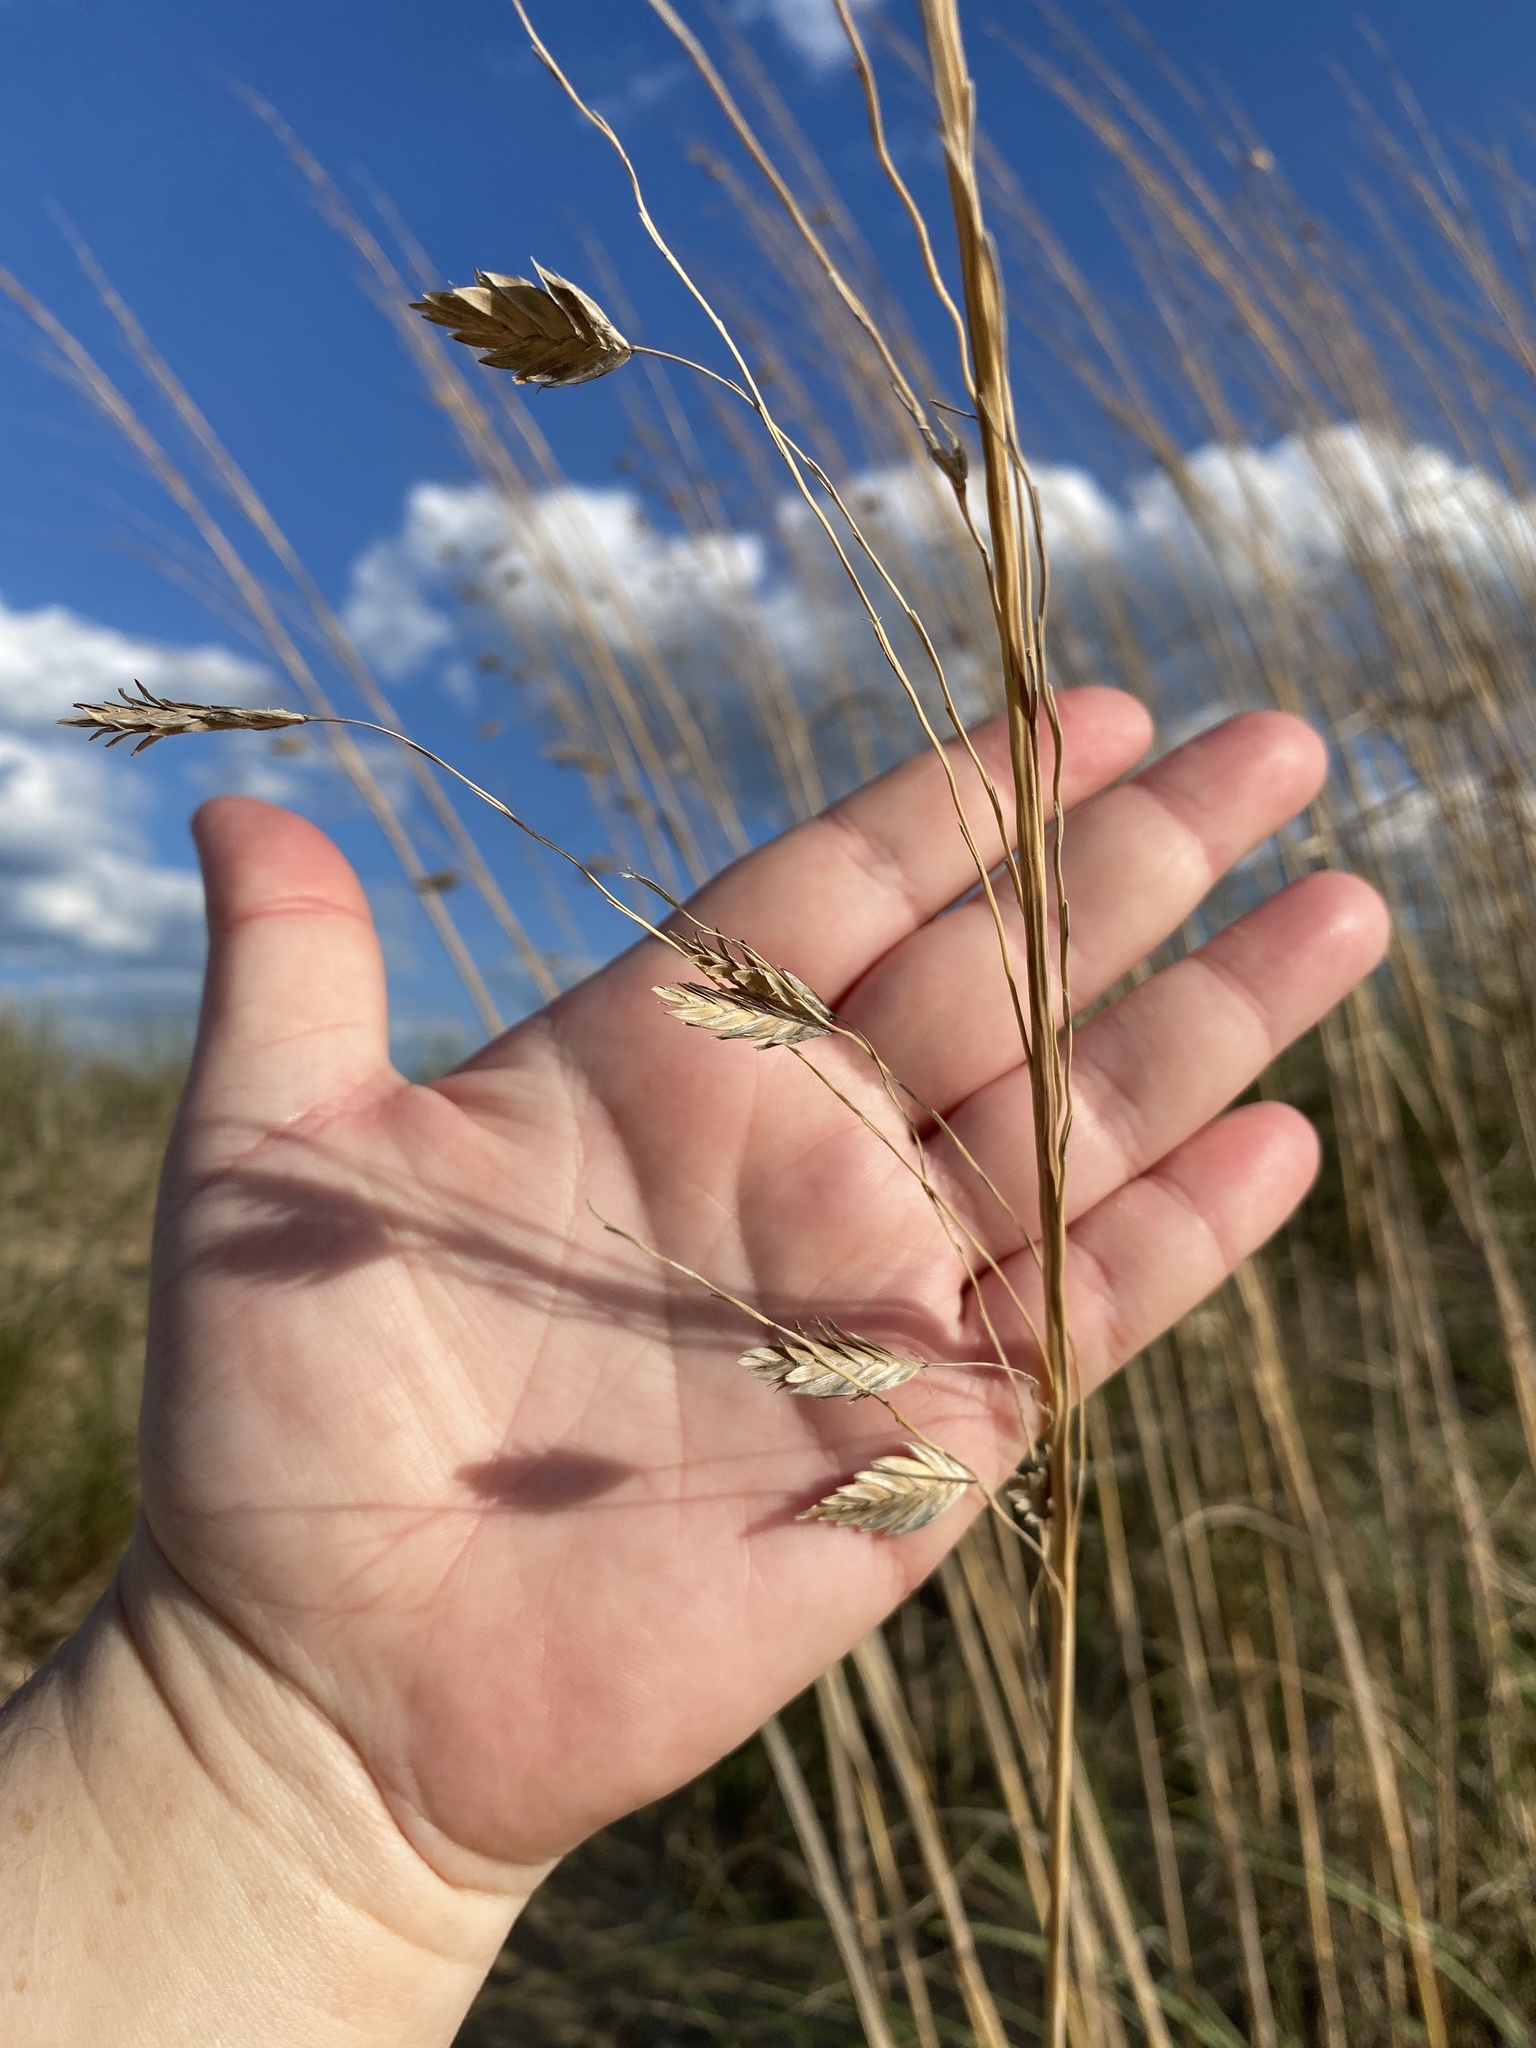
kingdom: Plantae
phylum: Tracheophyta
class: Liliopsida
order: Poales
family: Poaceae
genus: Uniola
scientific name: Uniola paniculata
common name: Seaside-oats
